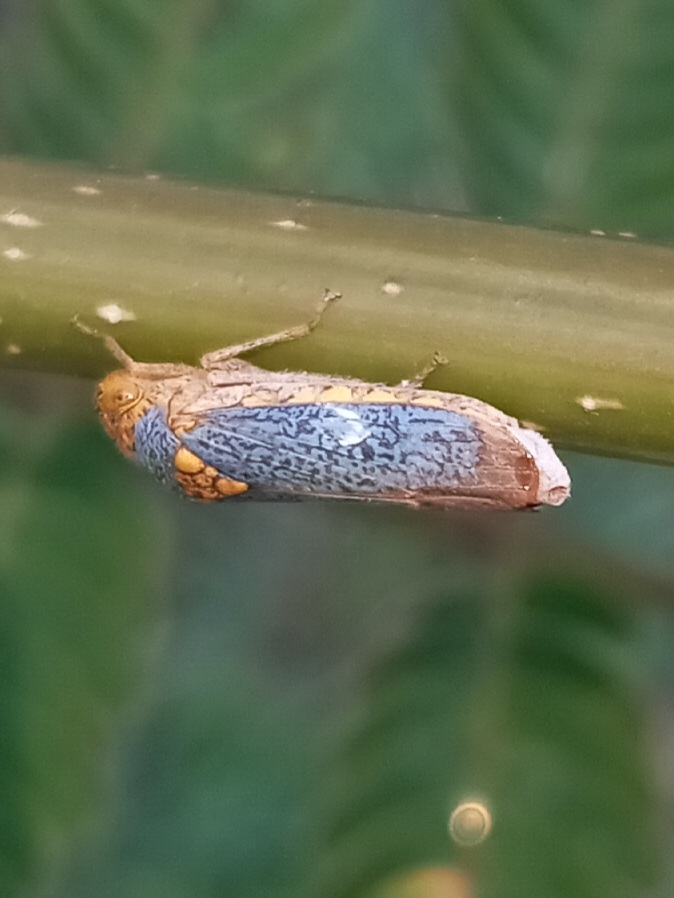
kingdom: Animalia
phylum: Arthropoda
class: Insecta
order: Hemiptera
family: Cicadellidae
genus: Oncometopia
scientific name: Oncometopia orbona
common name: Broad-headed sharpshooter
